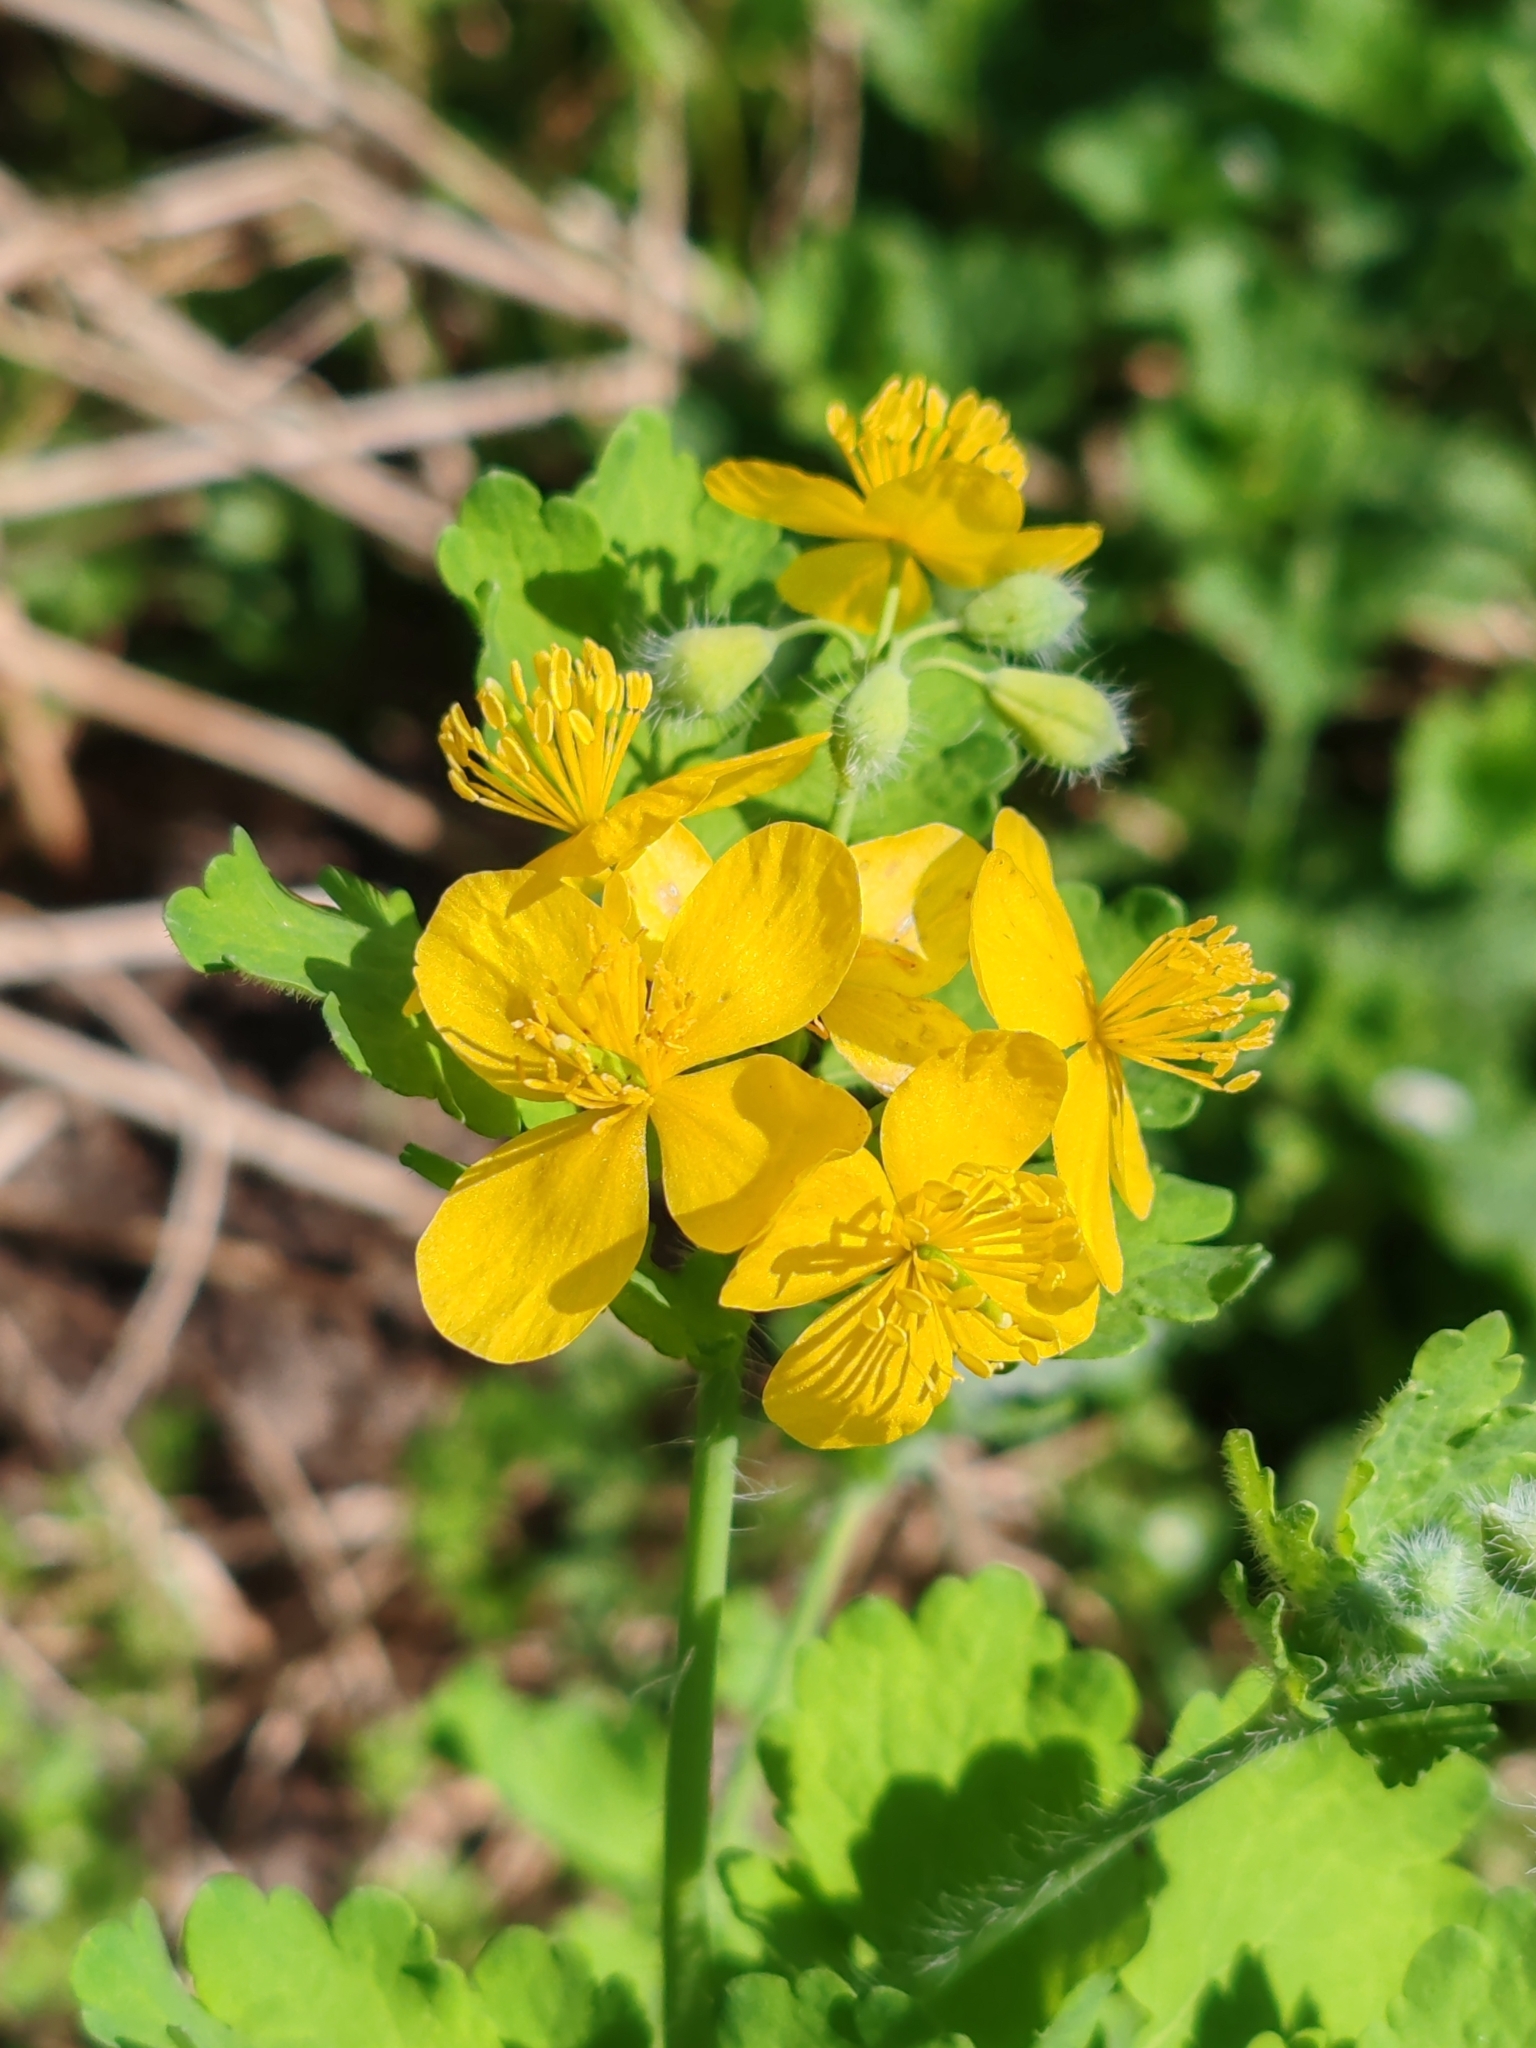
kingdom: Plantae
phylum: Tracheophyta
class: Magnoliopsida
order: Ranunculales
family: Papaveraceae
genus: Chelidonium
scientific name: Chelidonium majus
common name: Greater celandine
